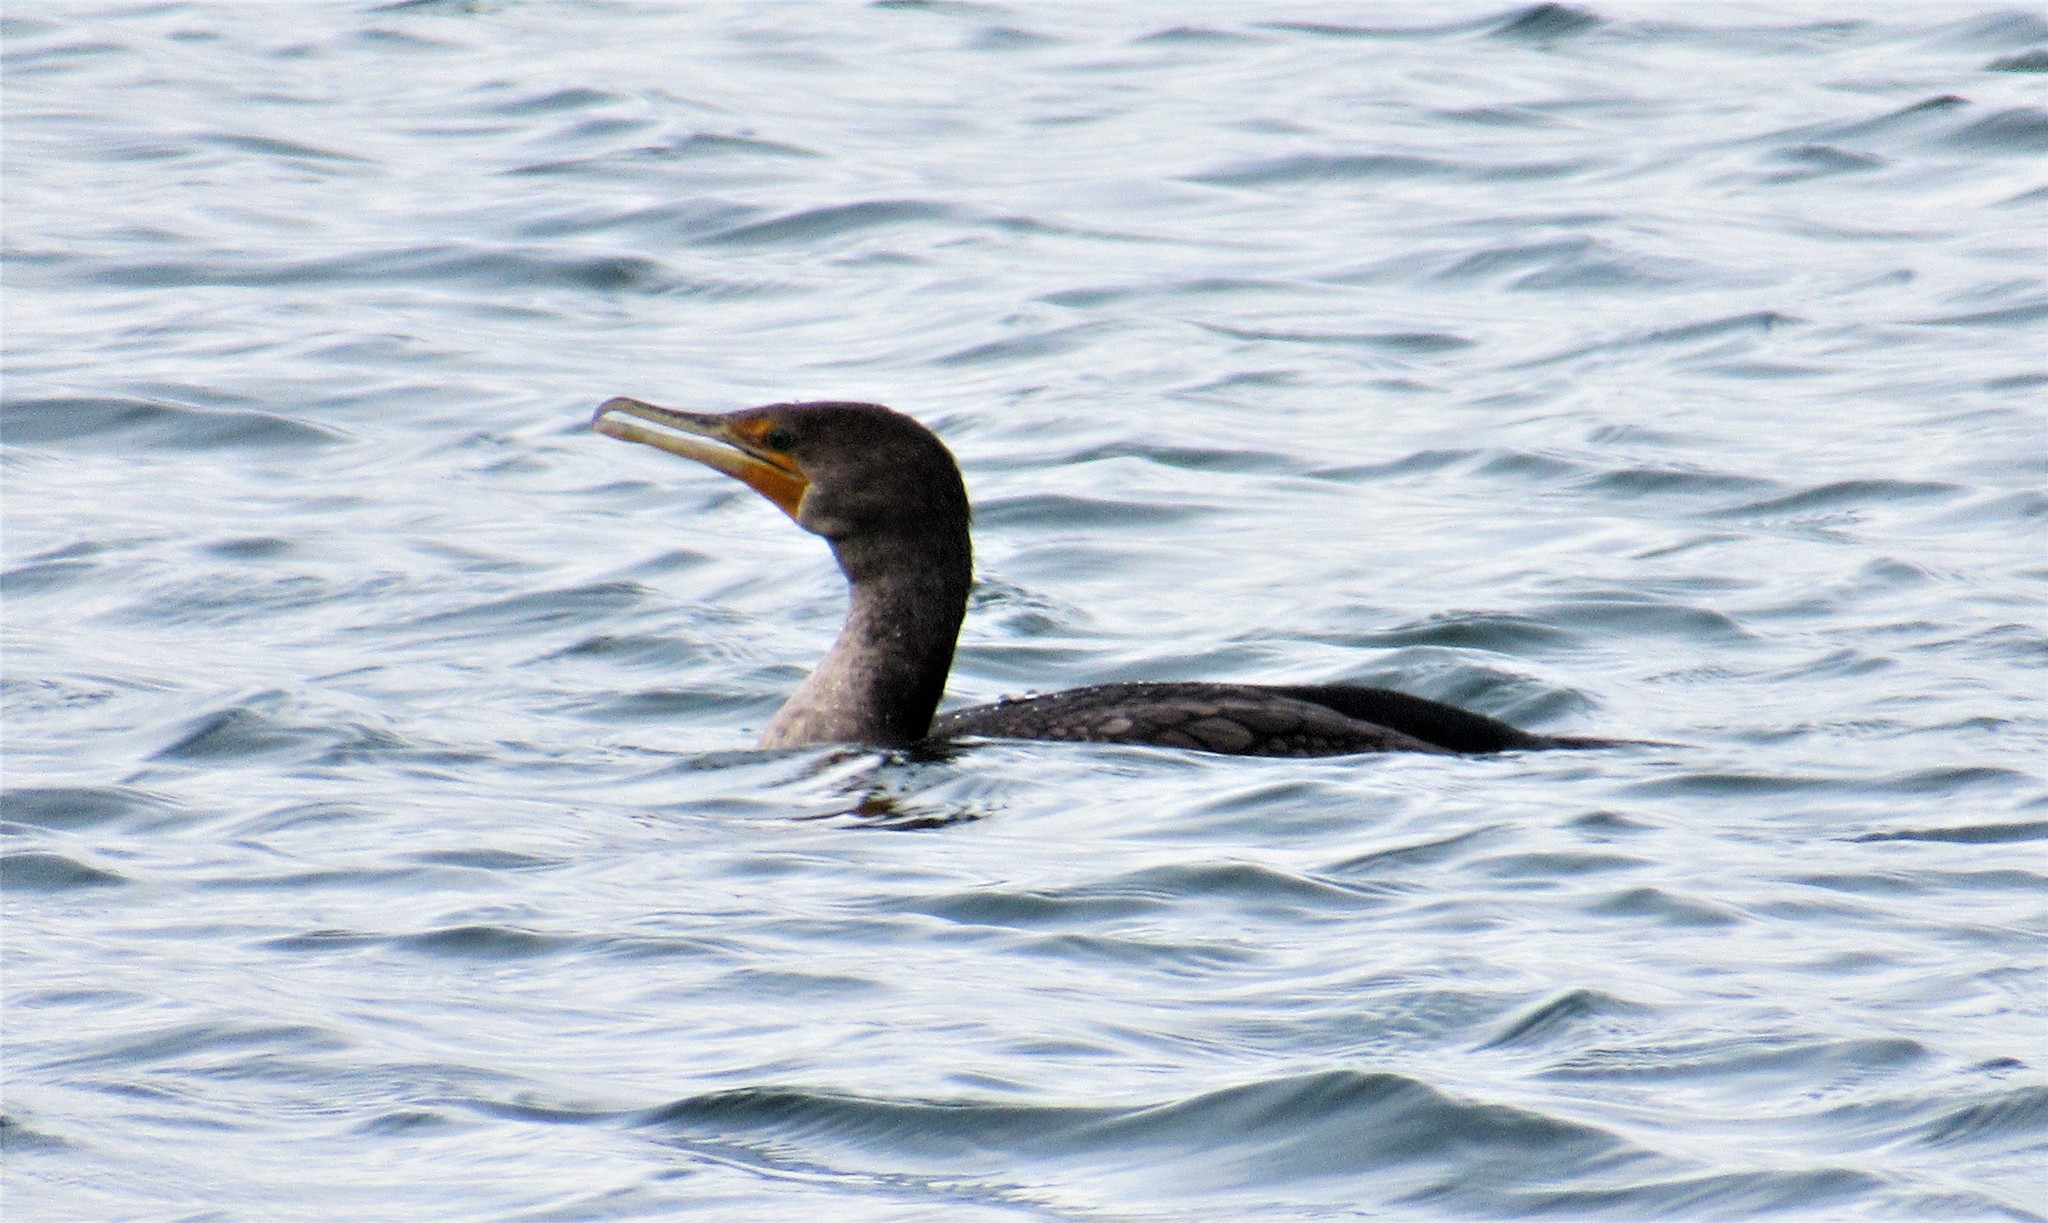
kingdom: Animalia
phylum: Chordata
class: Aves
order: Suliformes
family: Phalacrocoracidae
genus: Phalacrocorax
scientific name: Phalacrocorax auritus
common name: Double-crested cormorant
